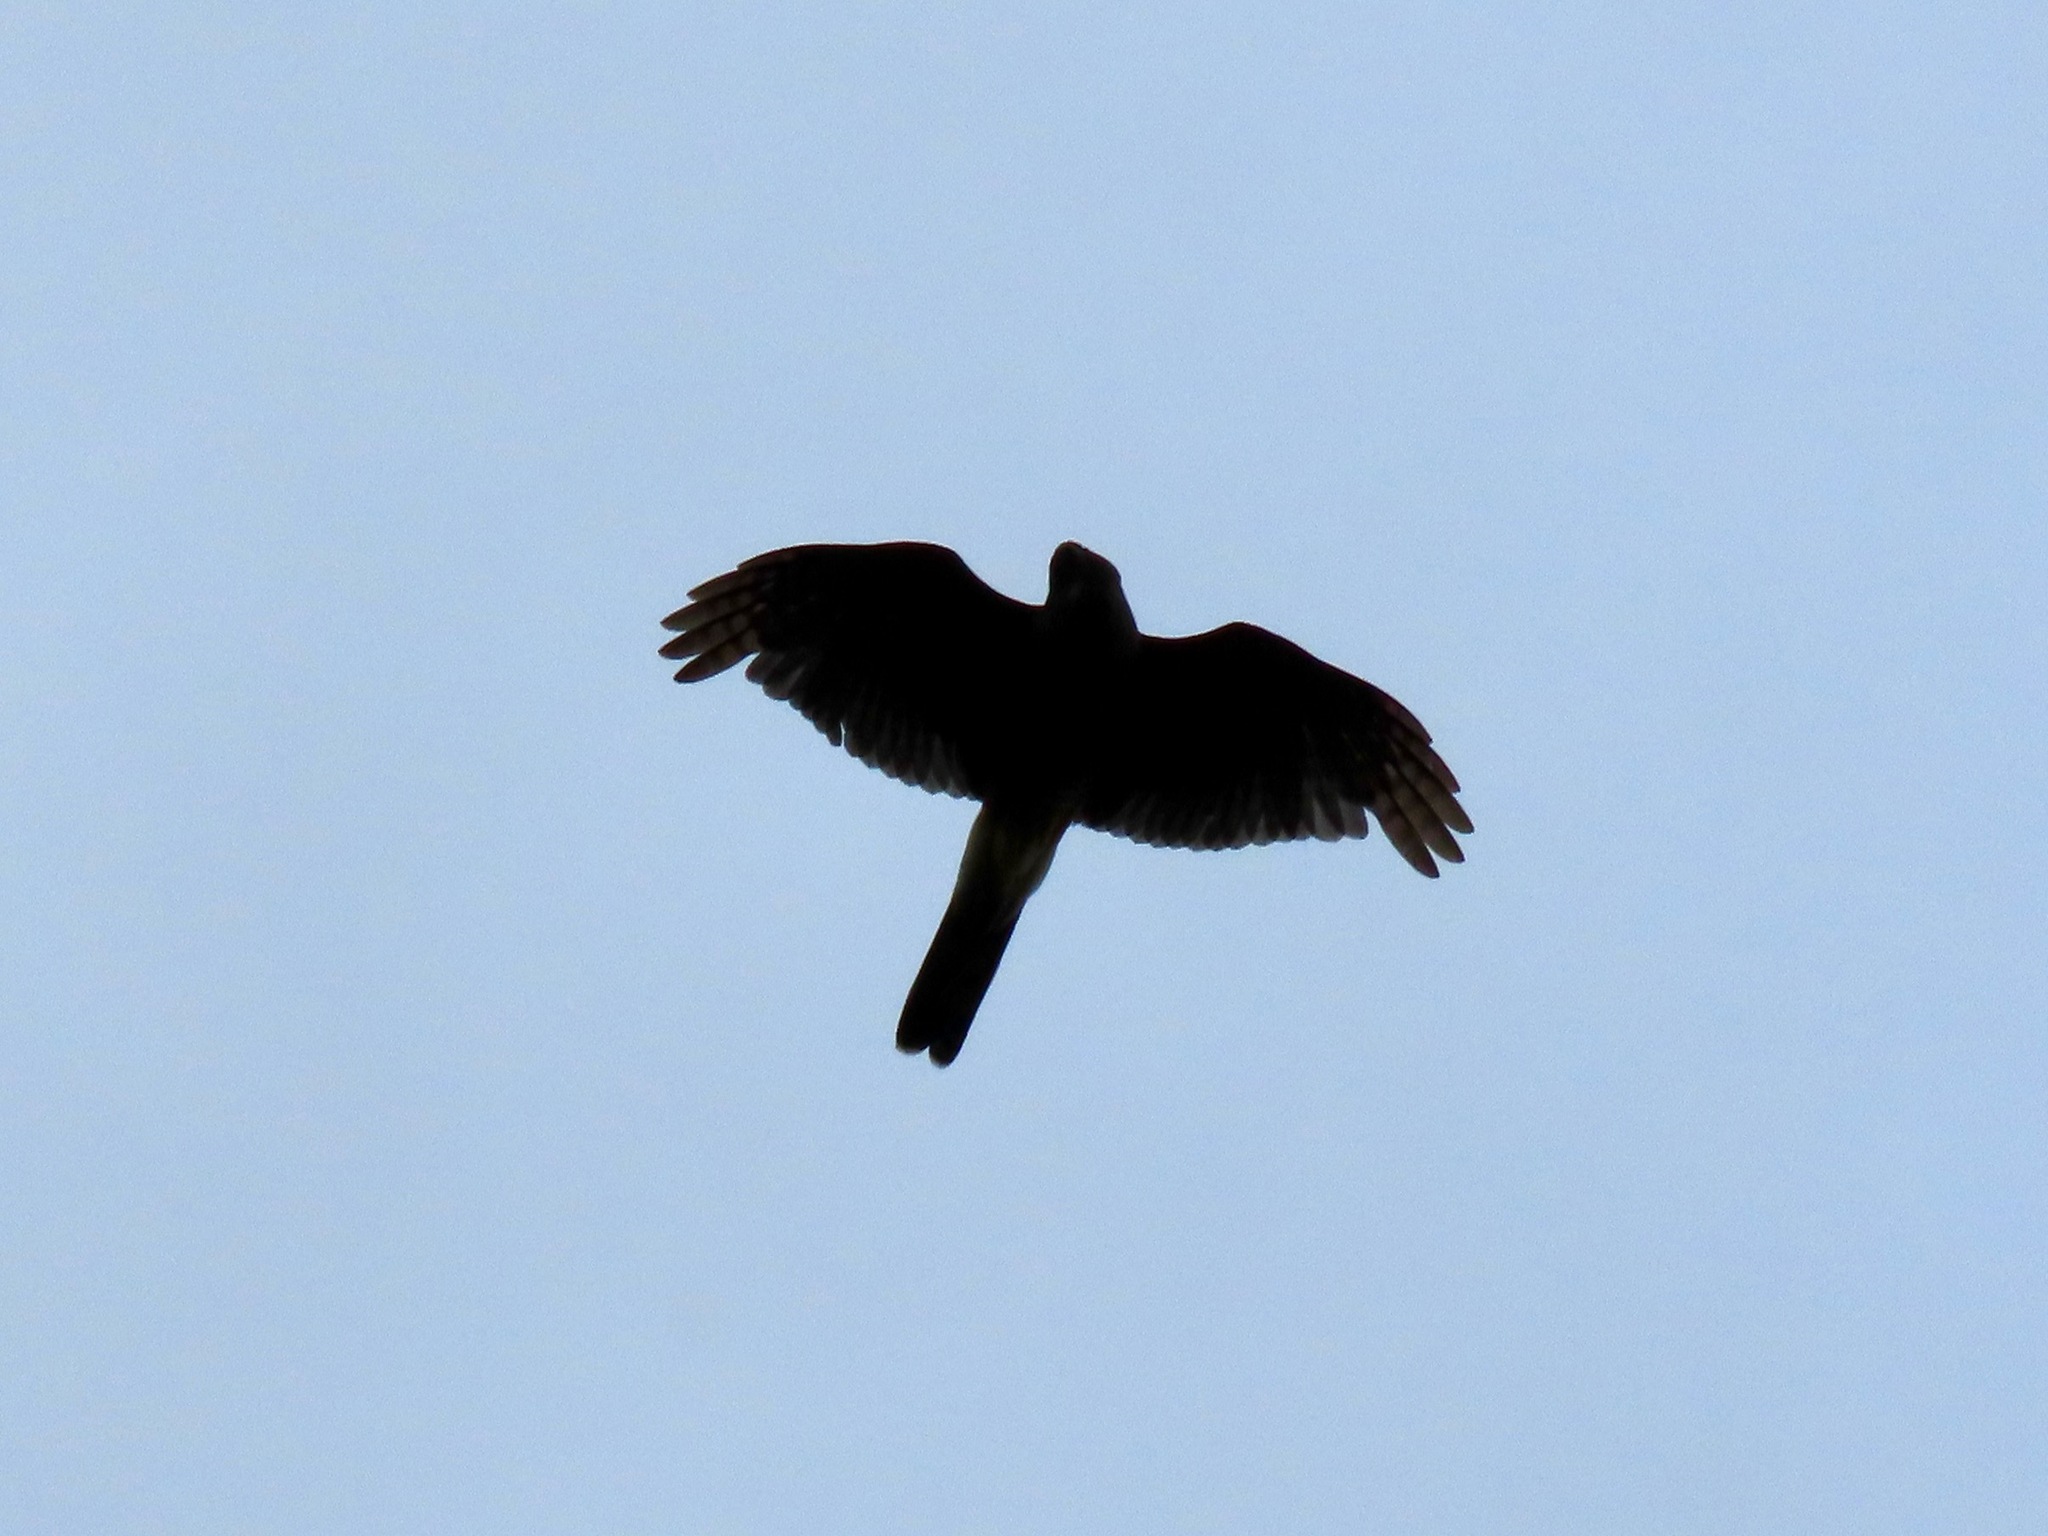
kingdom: Animalia
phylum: Chordata
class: Aves
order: Accipitriformes
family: Accipitridae
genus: Accipiter
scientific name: Accipiter cooperii
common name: Cooper's hawk
